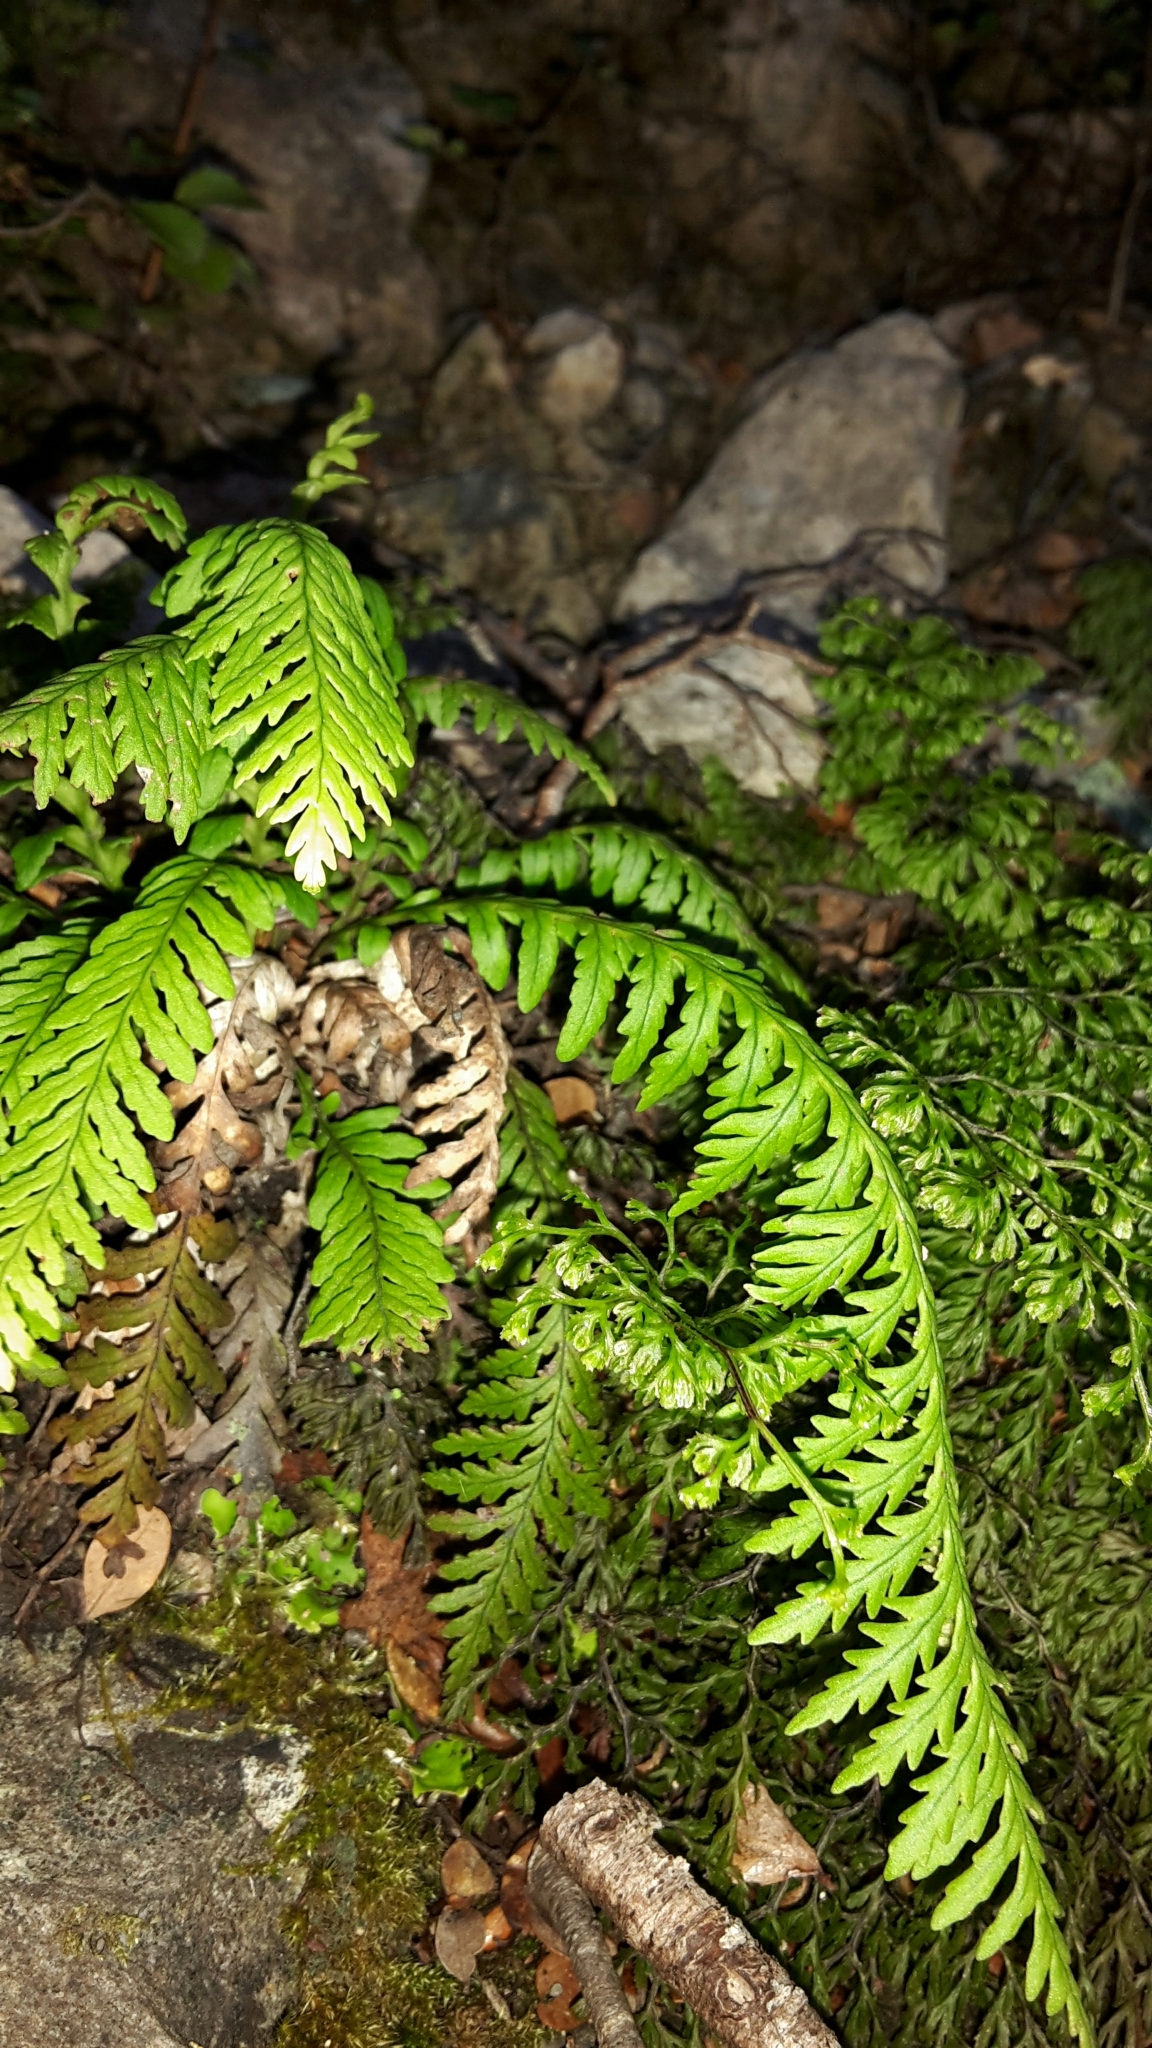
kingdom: Plantae
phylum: Tracheophyta
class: Polypodiopsida
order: Polypodiales
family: Polypodiaceae
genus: Notogrammitis
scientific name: Notogrammitis heterophylla
